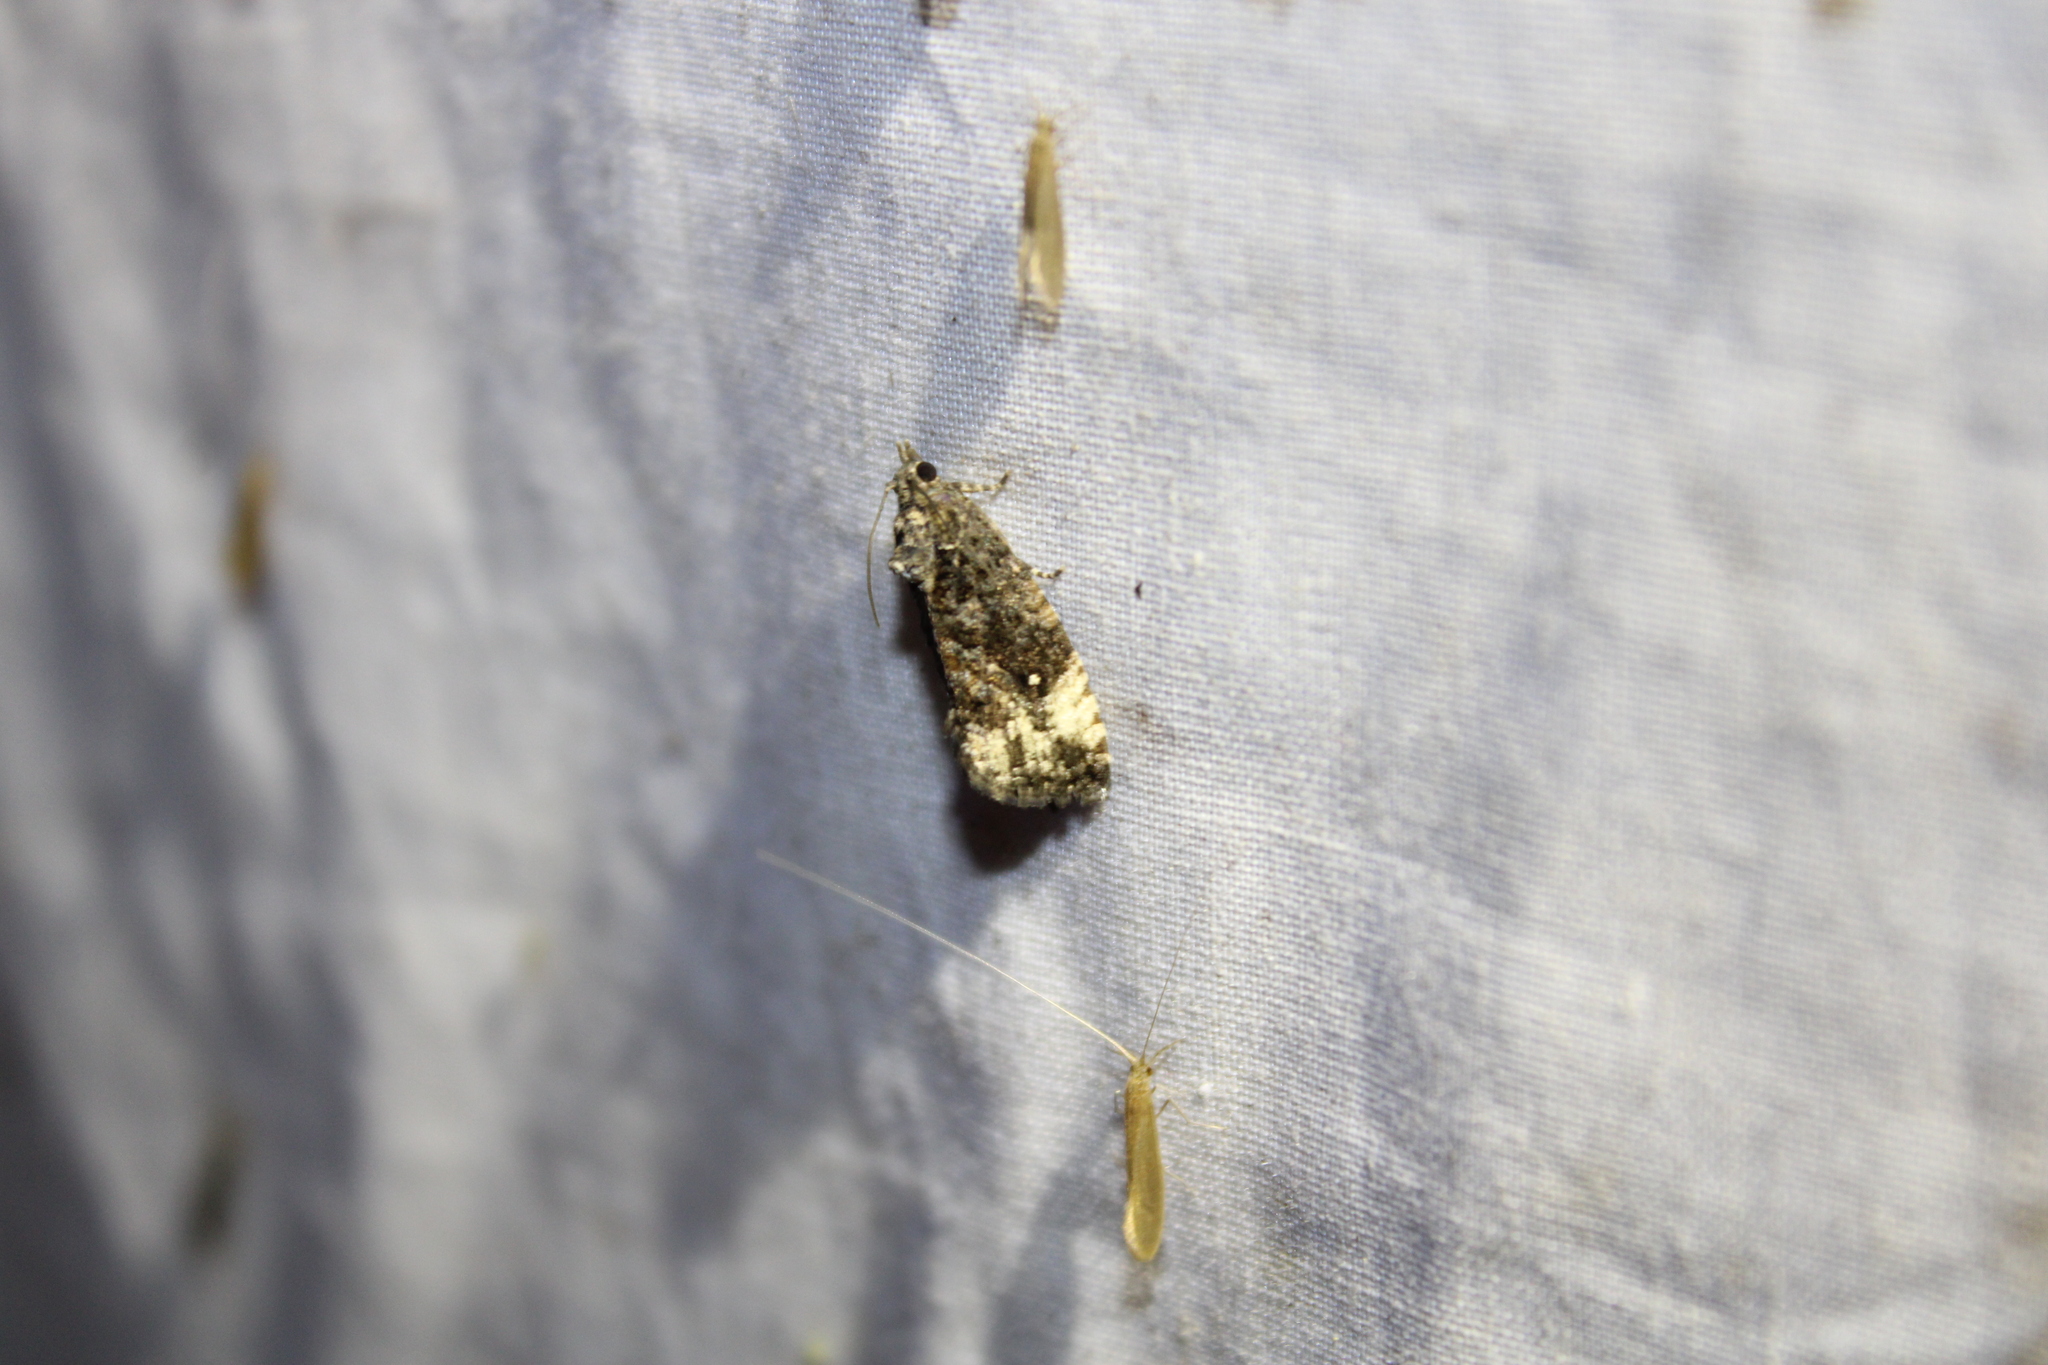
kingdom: Animalia
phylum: Arthropoda
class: Insecta
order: Lepidoptera
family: Tortricidae
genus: Gymnandrosoma
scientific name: Gymnandrosoma punctidiscanum
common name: Dotted ecdytolopha moth
